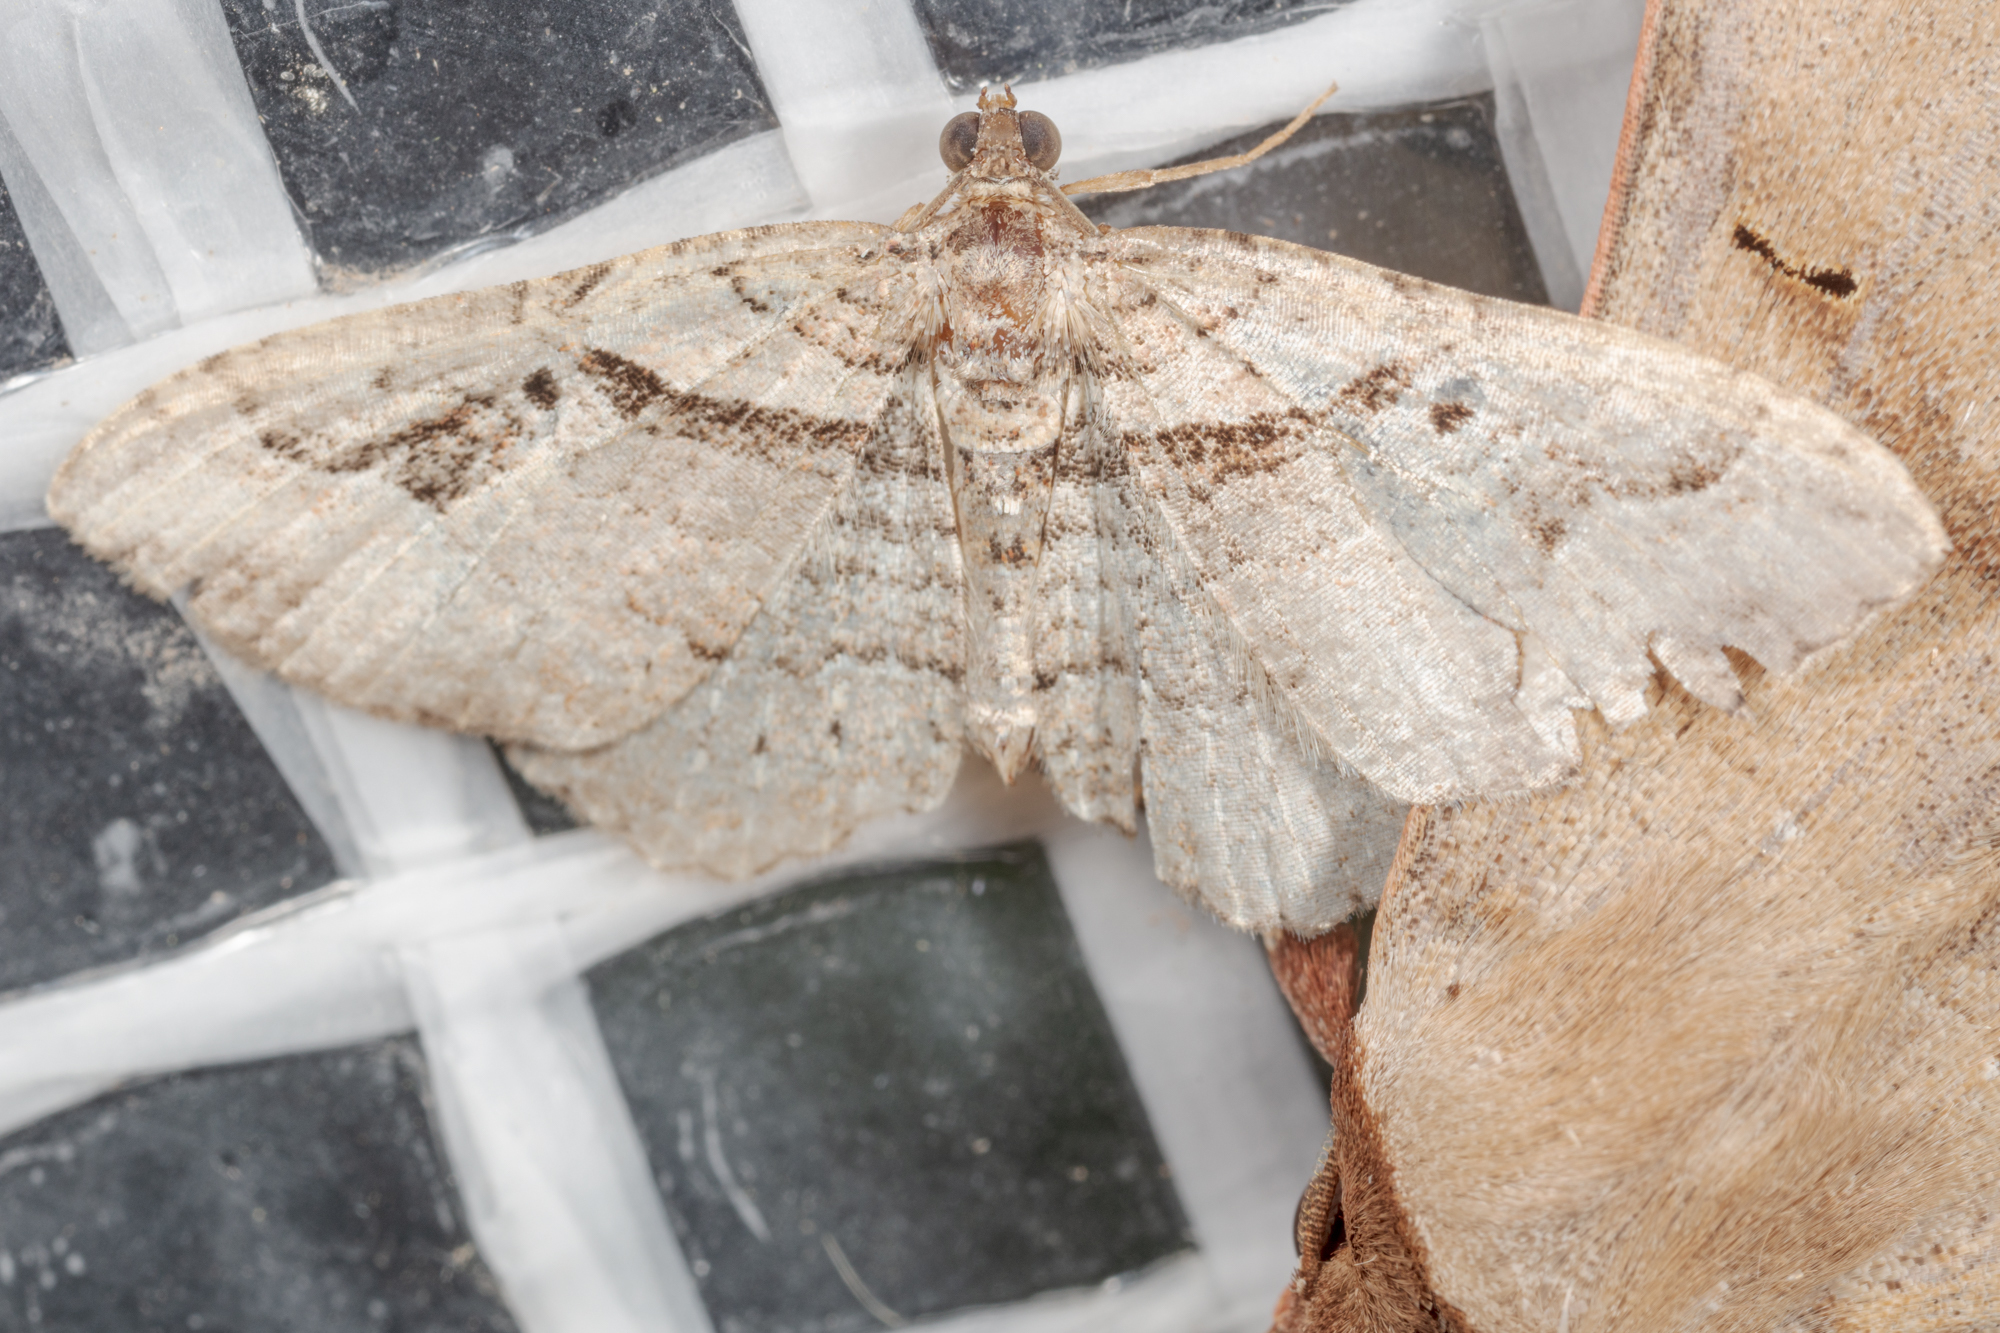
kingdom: Animalia
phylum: Arthropoda
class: Insecta
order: Lepidoptera
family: Geometridae
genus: Costaconvexa
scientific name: Costaconvexa centrostrigaria
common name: Bent-line carpet
